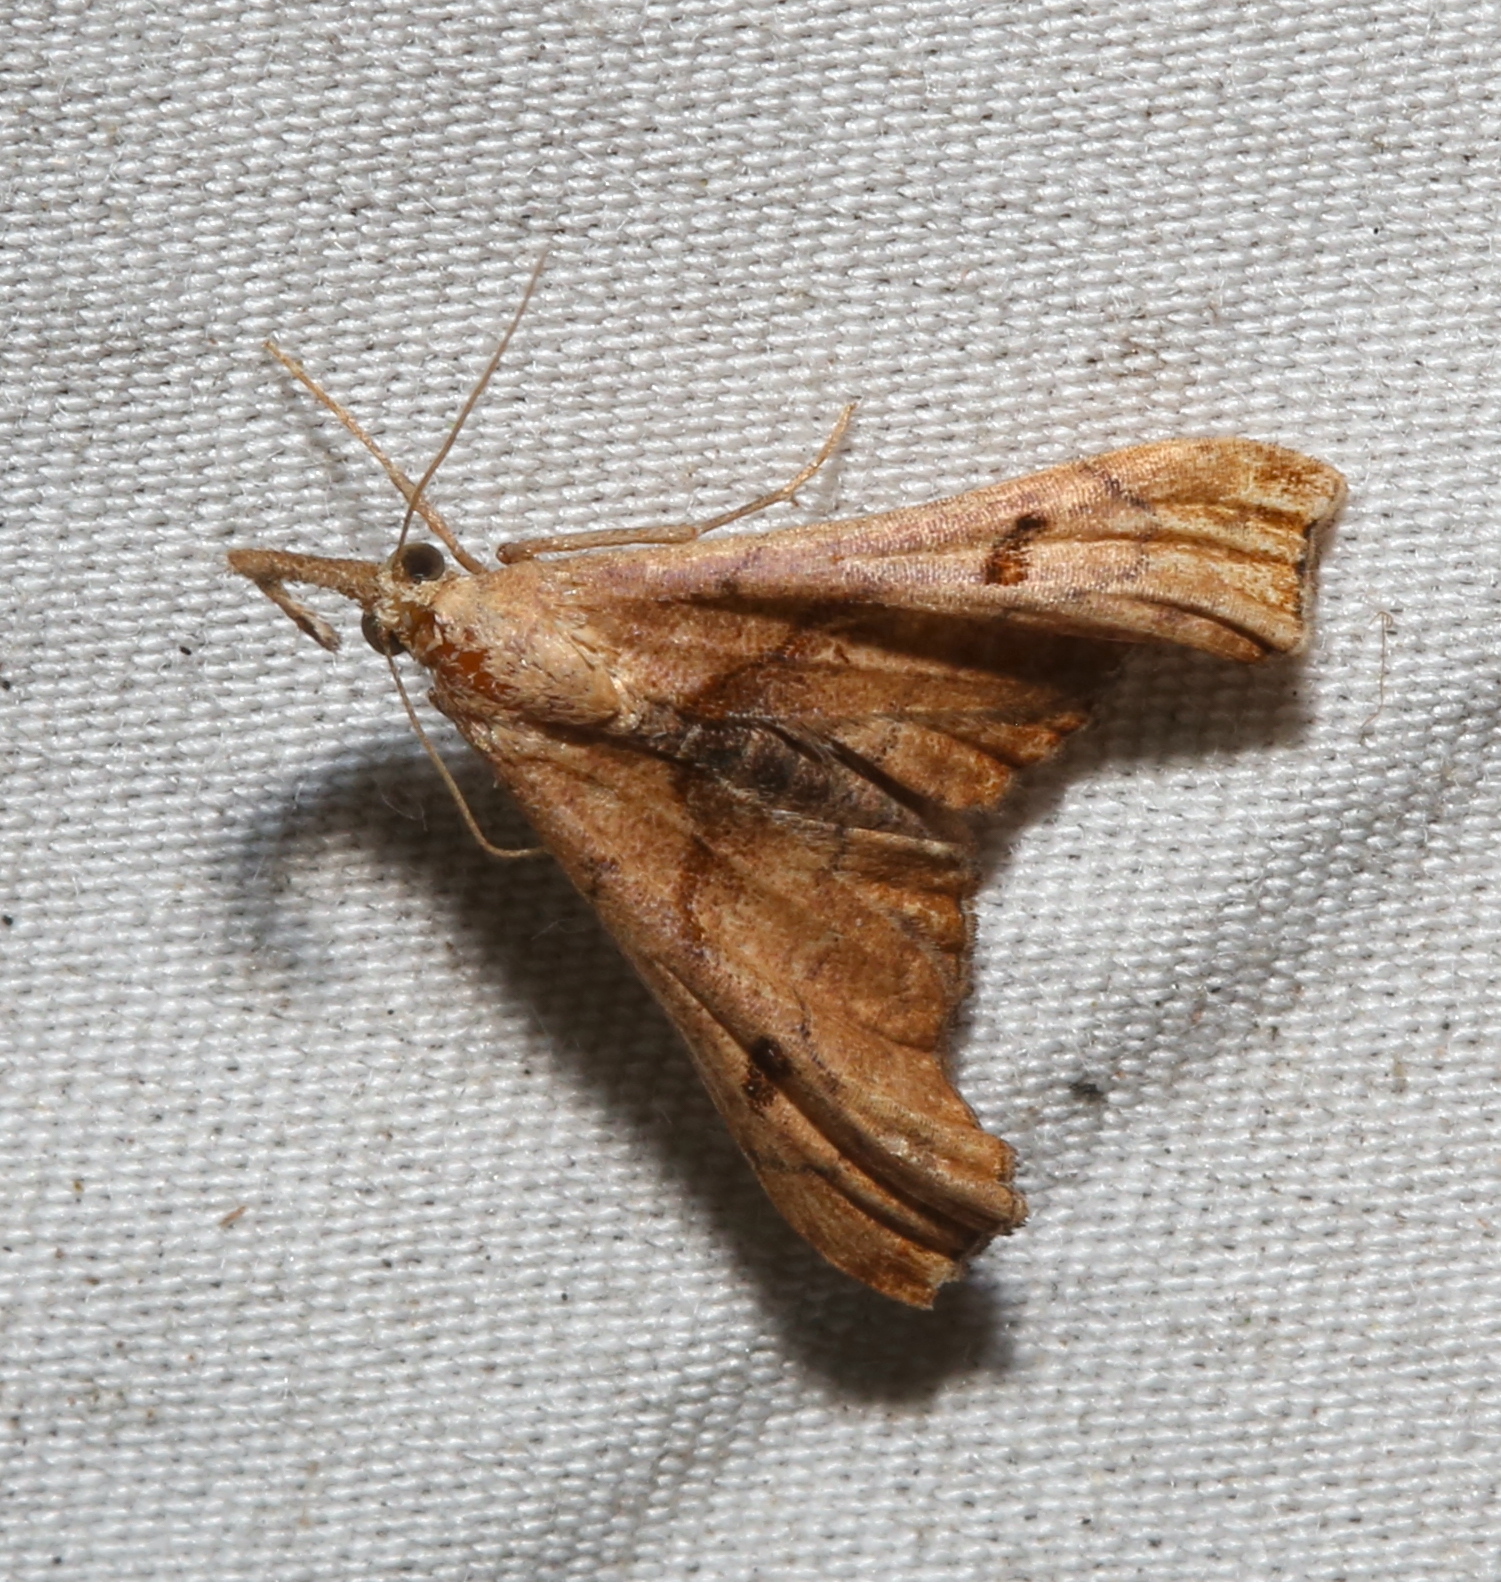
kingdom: Animalia
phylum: Arthropoda
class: Insecta
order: Lepidoptera
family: Erebidae
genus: Palthis
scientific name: Palthis angulalis
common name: Dark-spotted palthis moth
